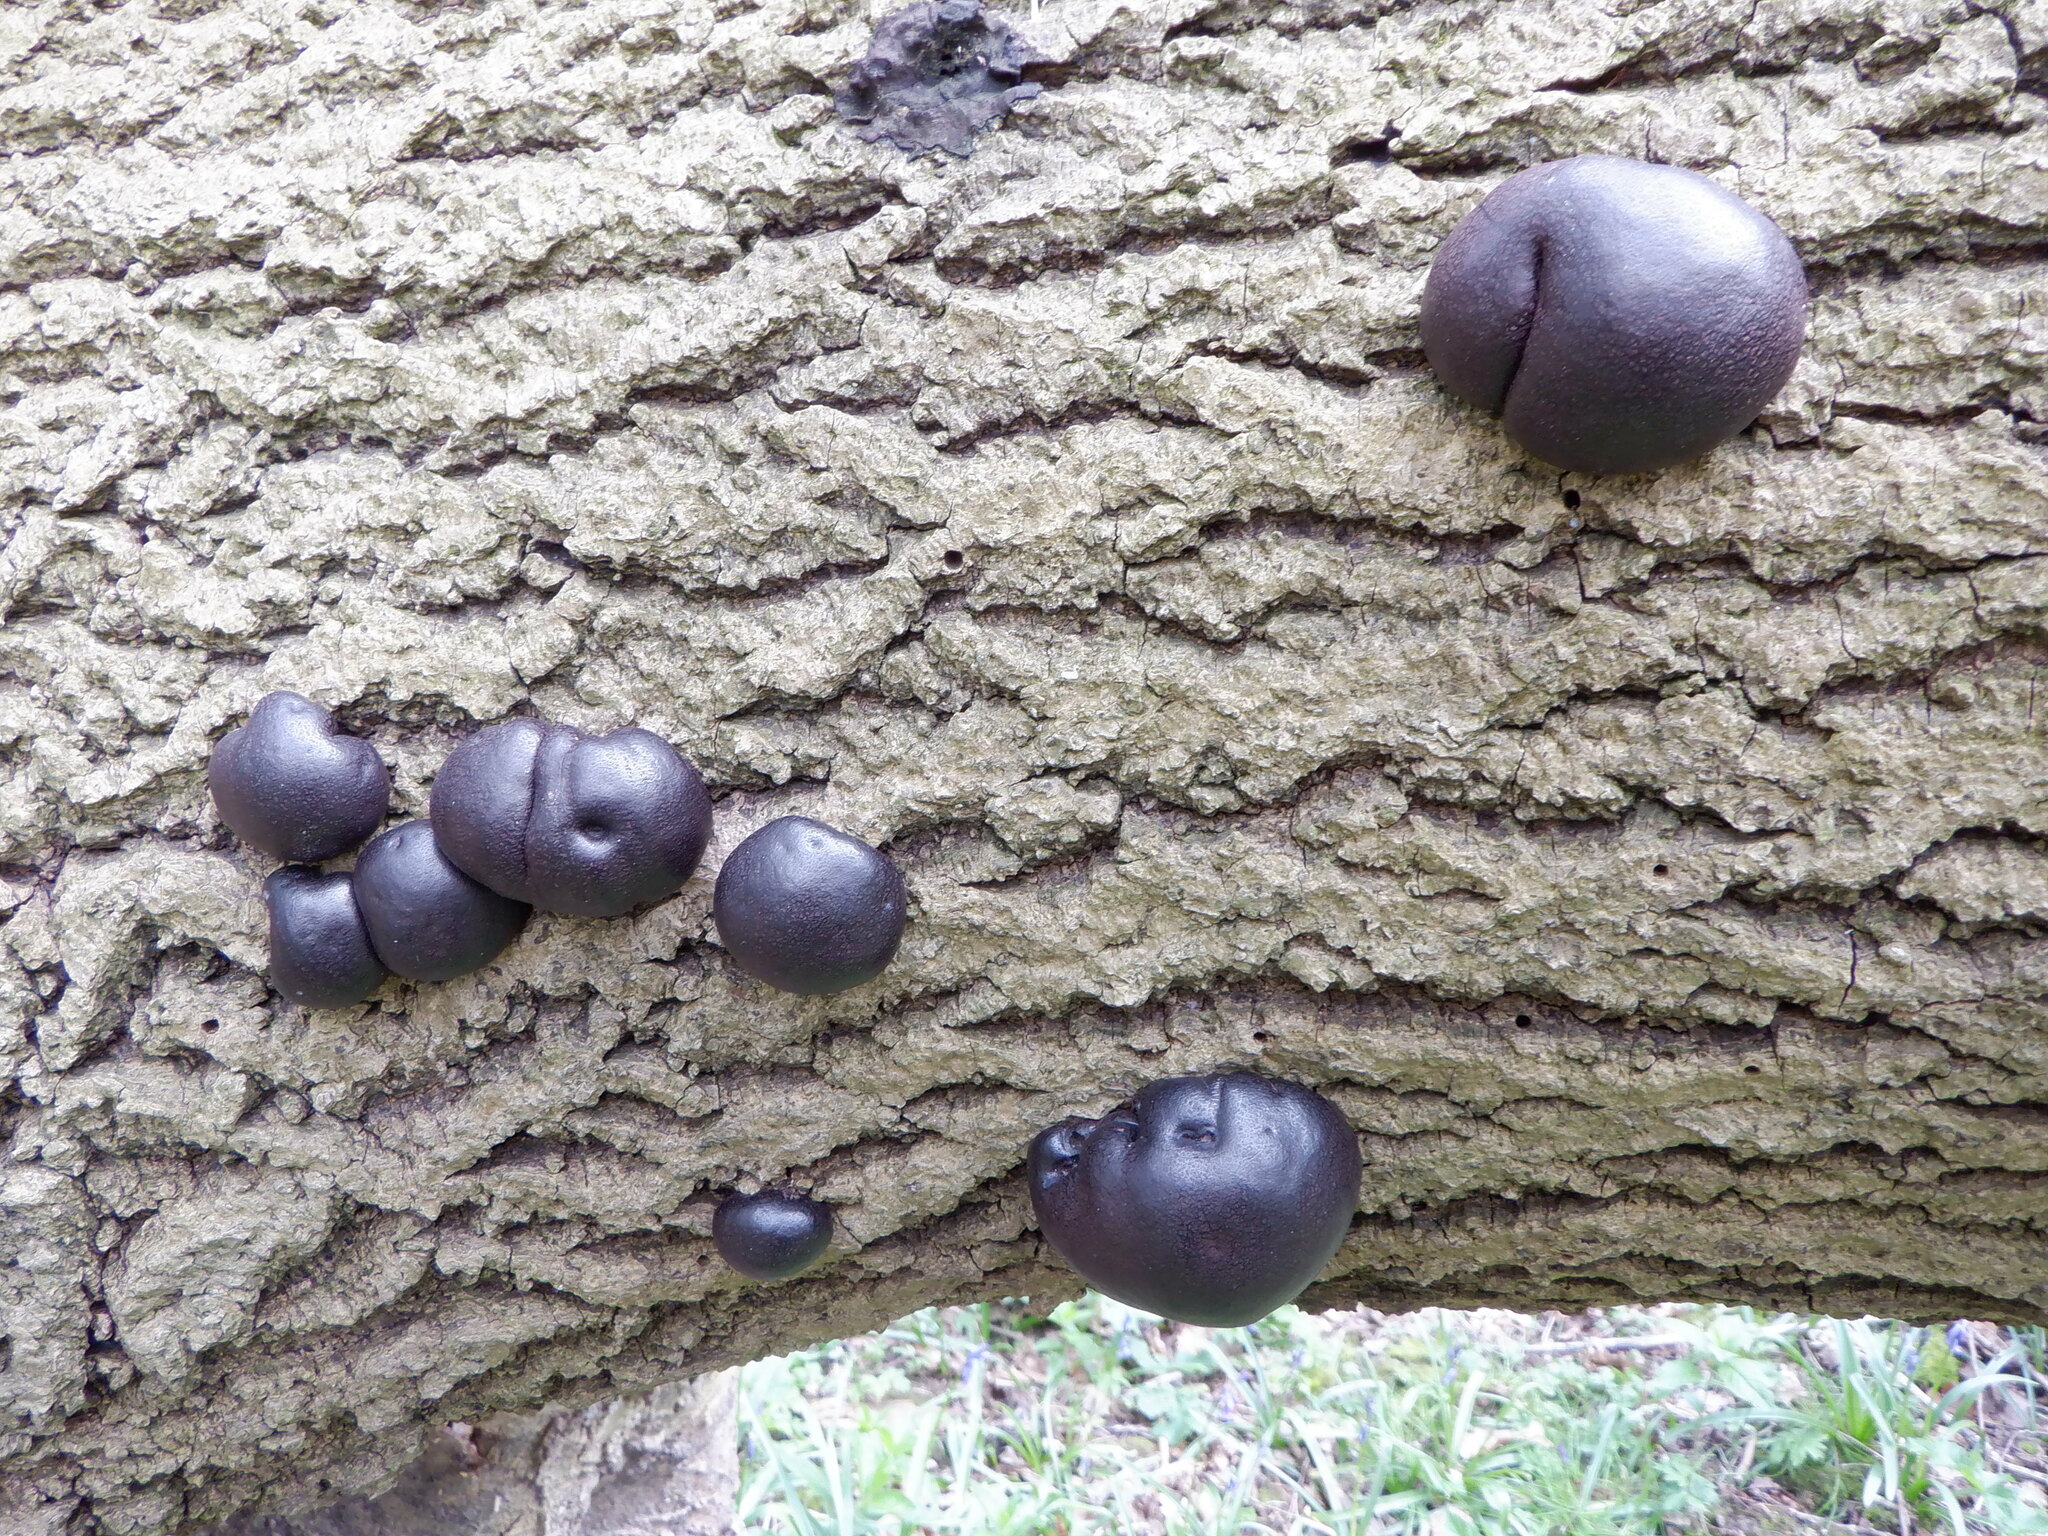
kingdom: Fungi
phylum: Ascomycota
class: Sordariomycetes
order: Xylariales
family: Hypoxylaceae
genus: Daldinia
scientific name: Daldinia concentrica
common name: Cramp balls
